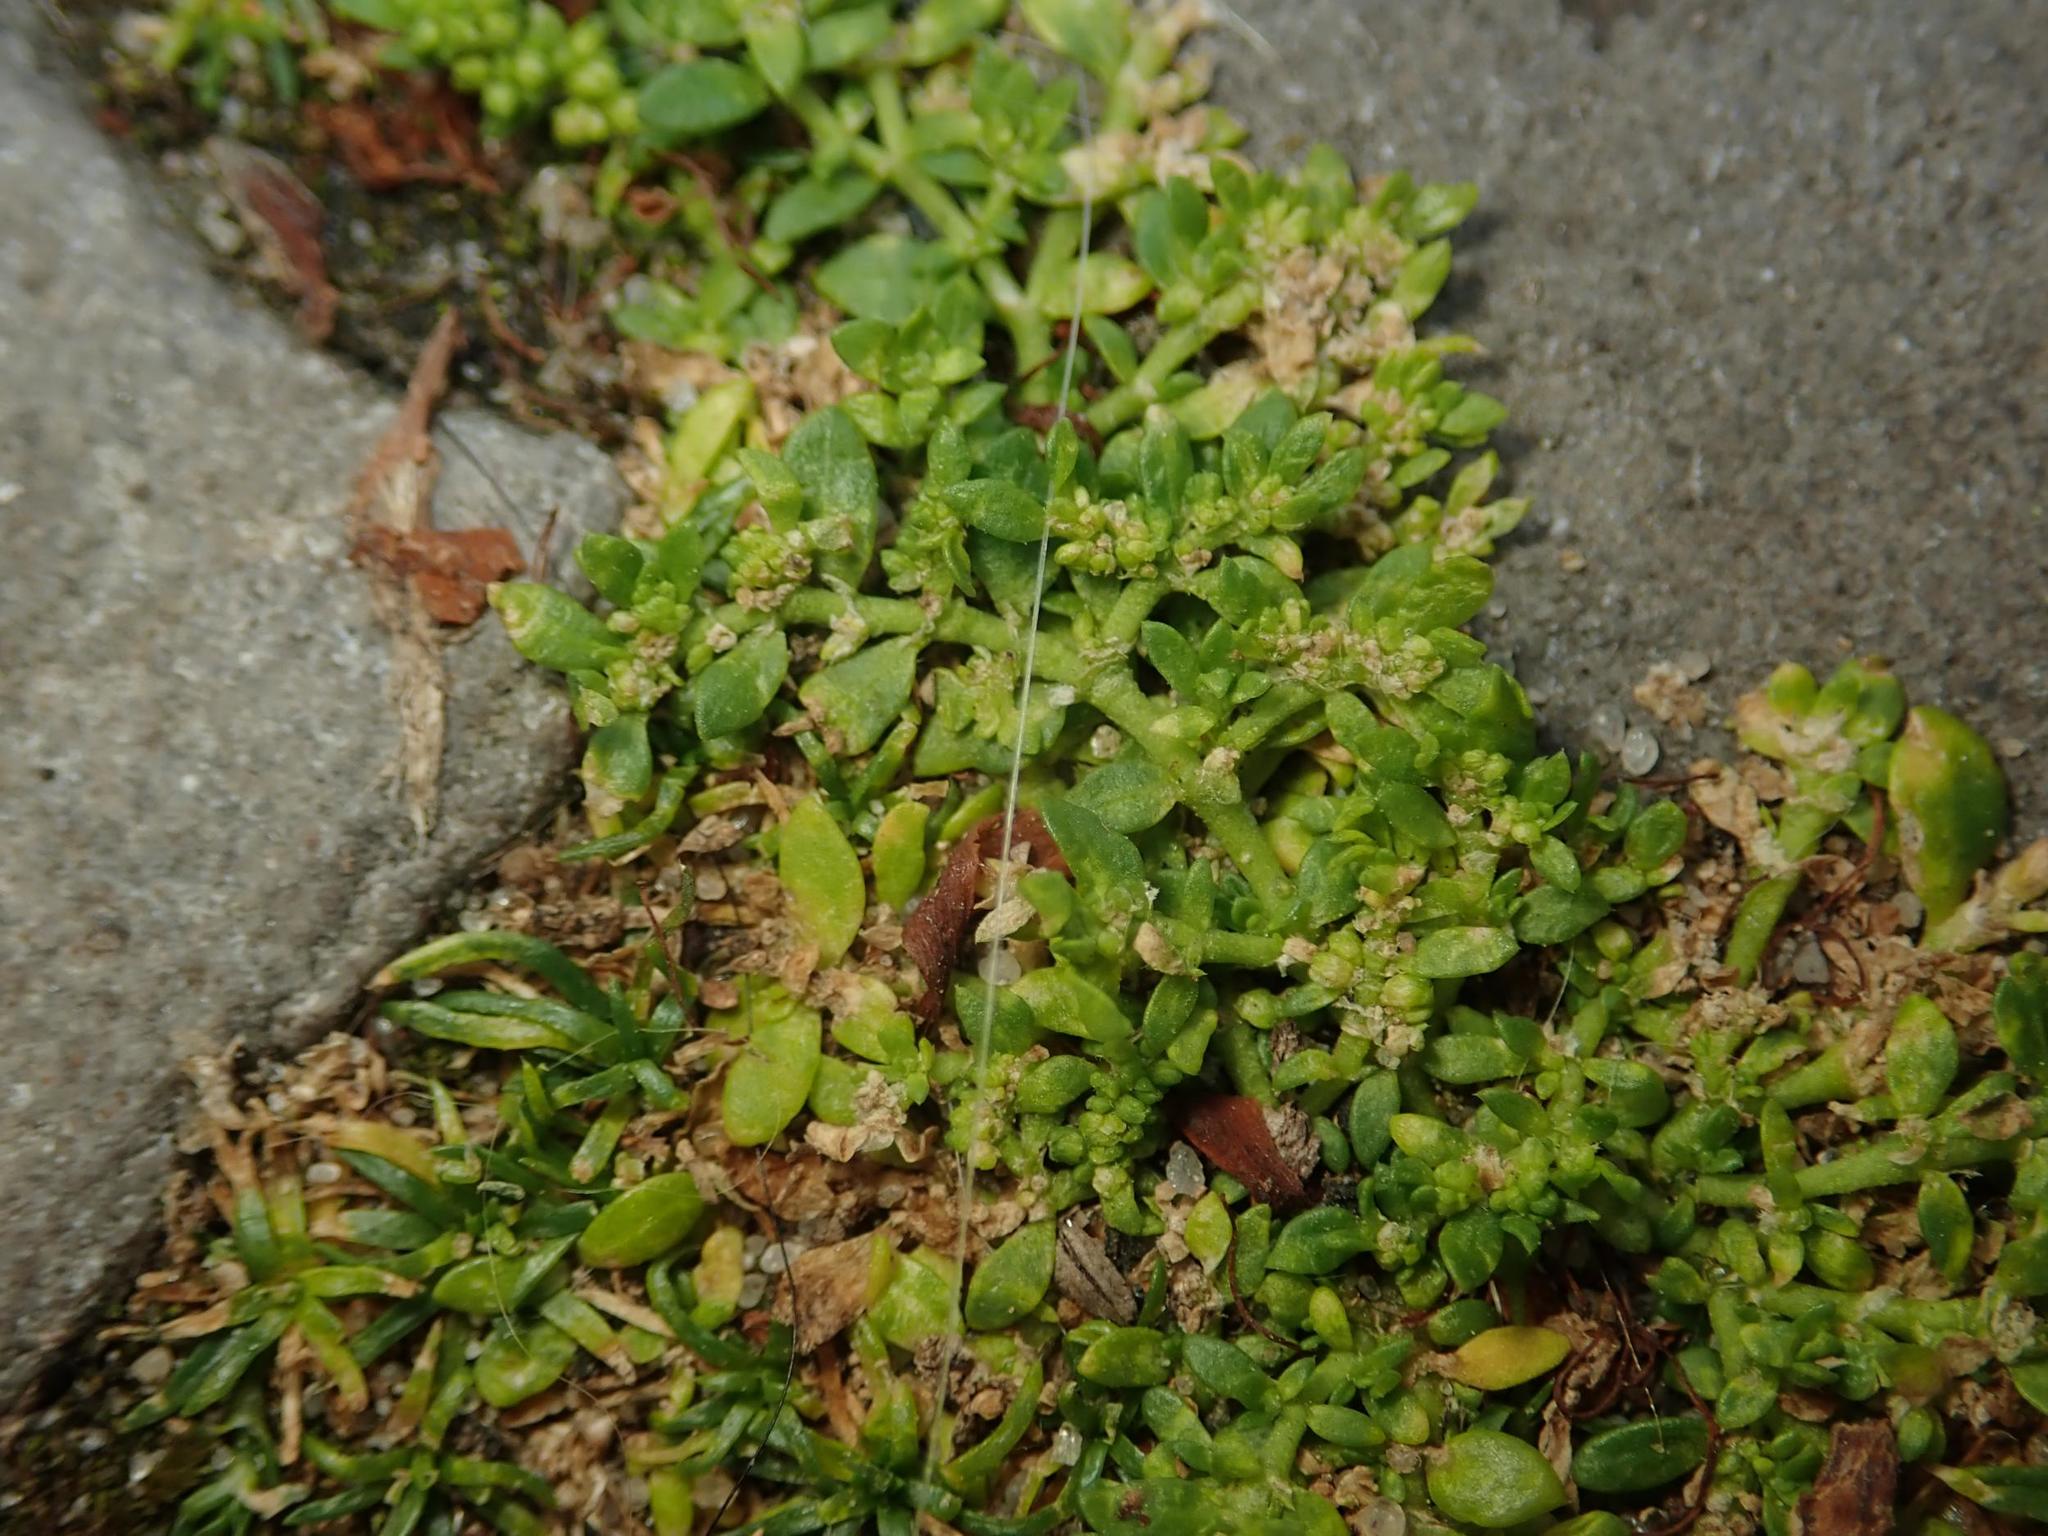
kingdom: Plantae
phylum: Tracheophyta
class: Magnoliopsida
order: Caryophyllales
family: Caryophyllaceae
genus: Herniaria
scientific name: Herniaria glabra
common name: Smooth rupturewort
